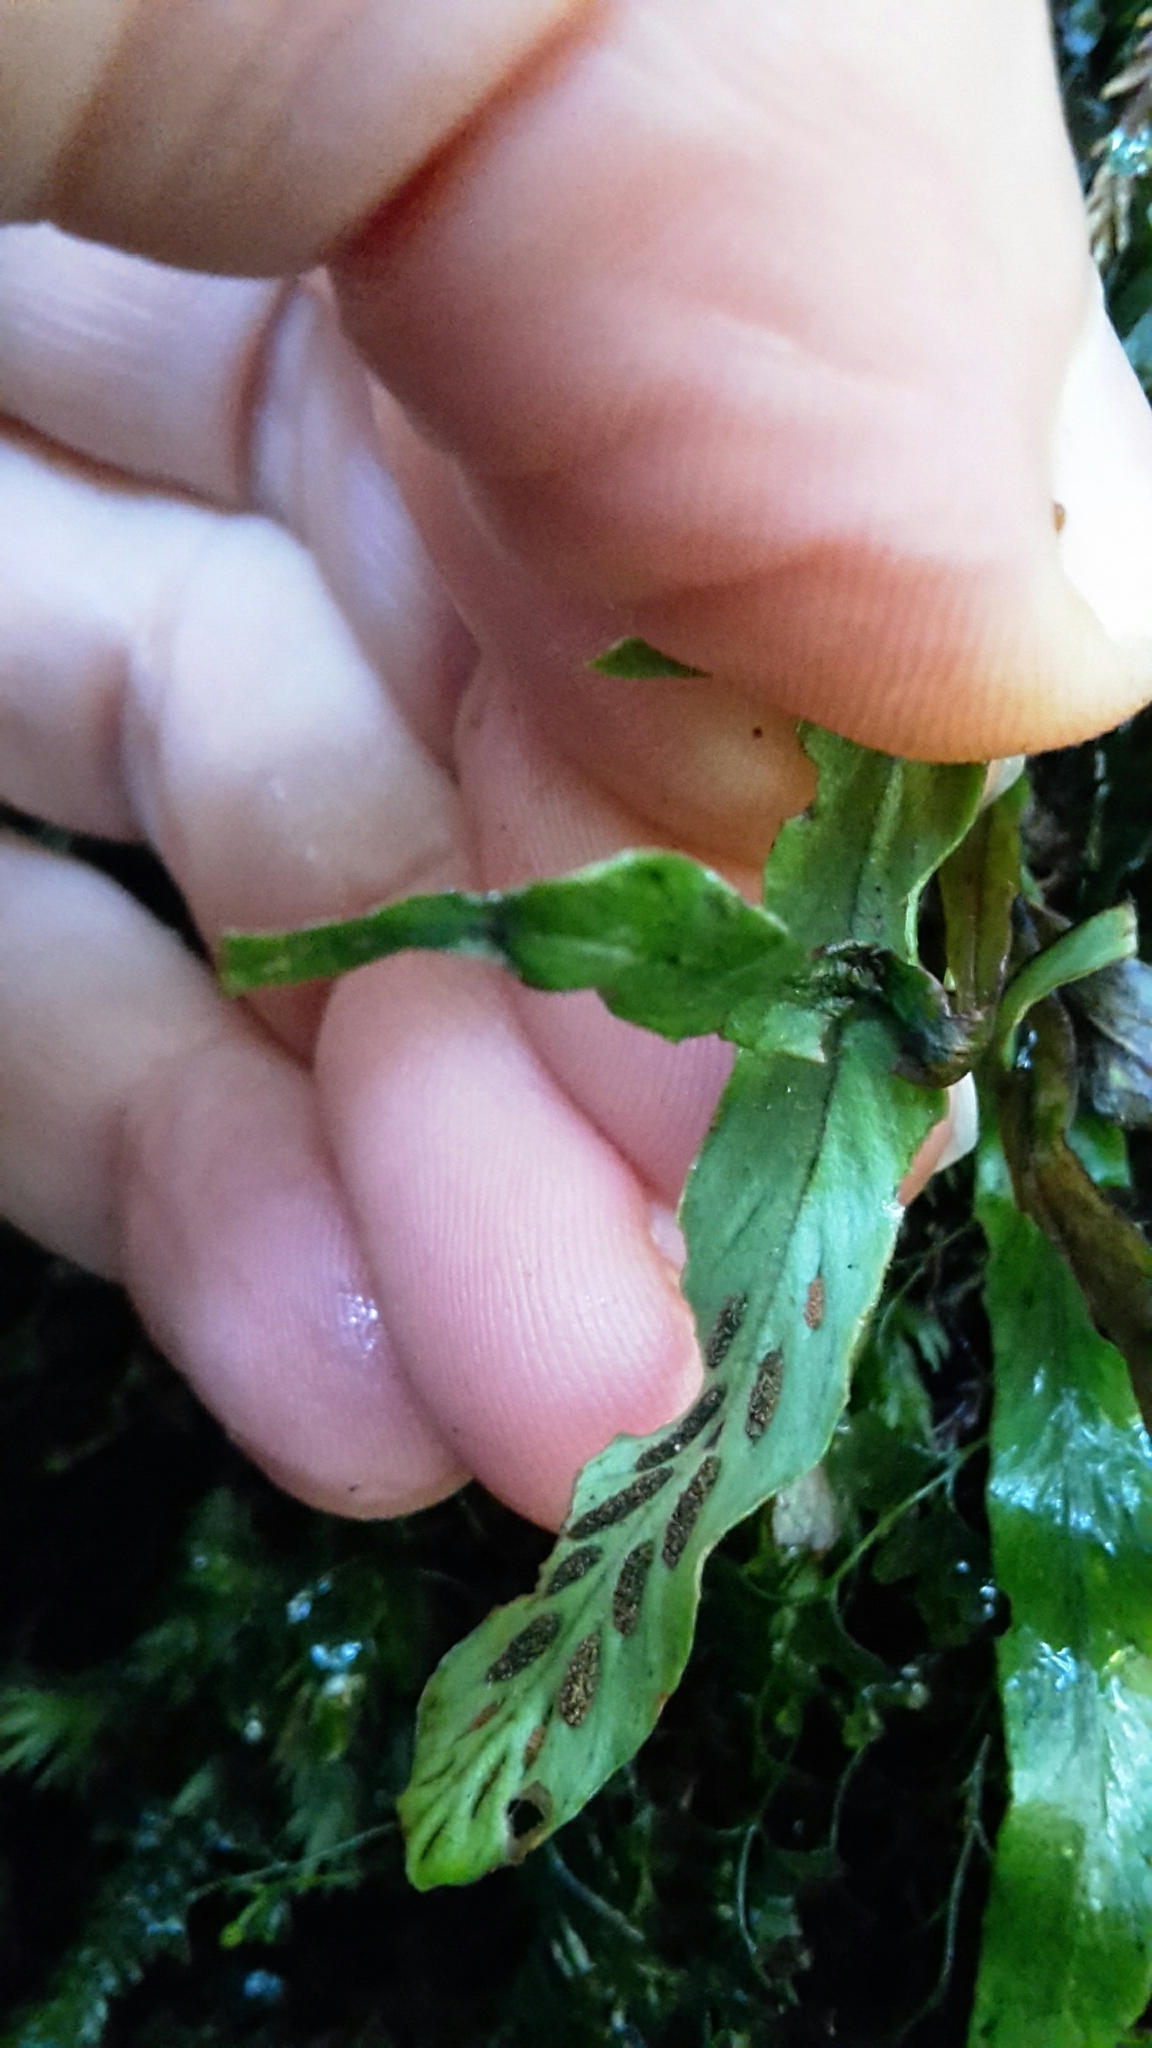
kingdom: Plantae
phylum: Tracheophyta
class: Polypodiopsida
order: Polypodiales
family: Polypodiaceae
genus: Notogrammitis
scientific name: Notogrammitis billardierei
